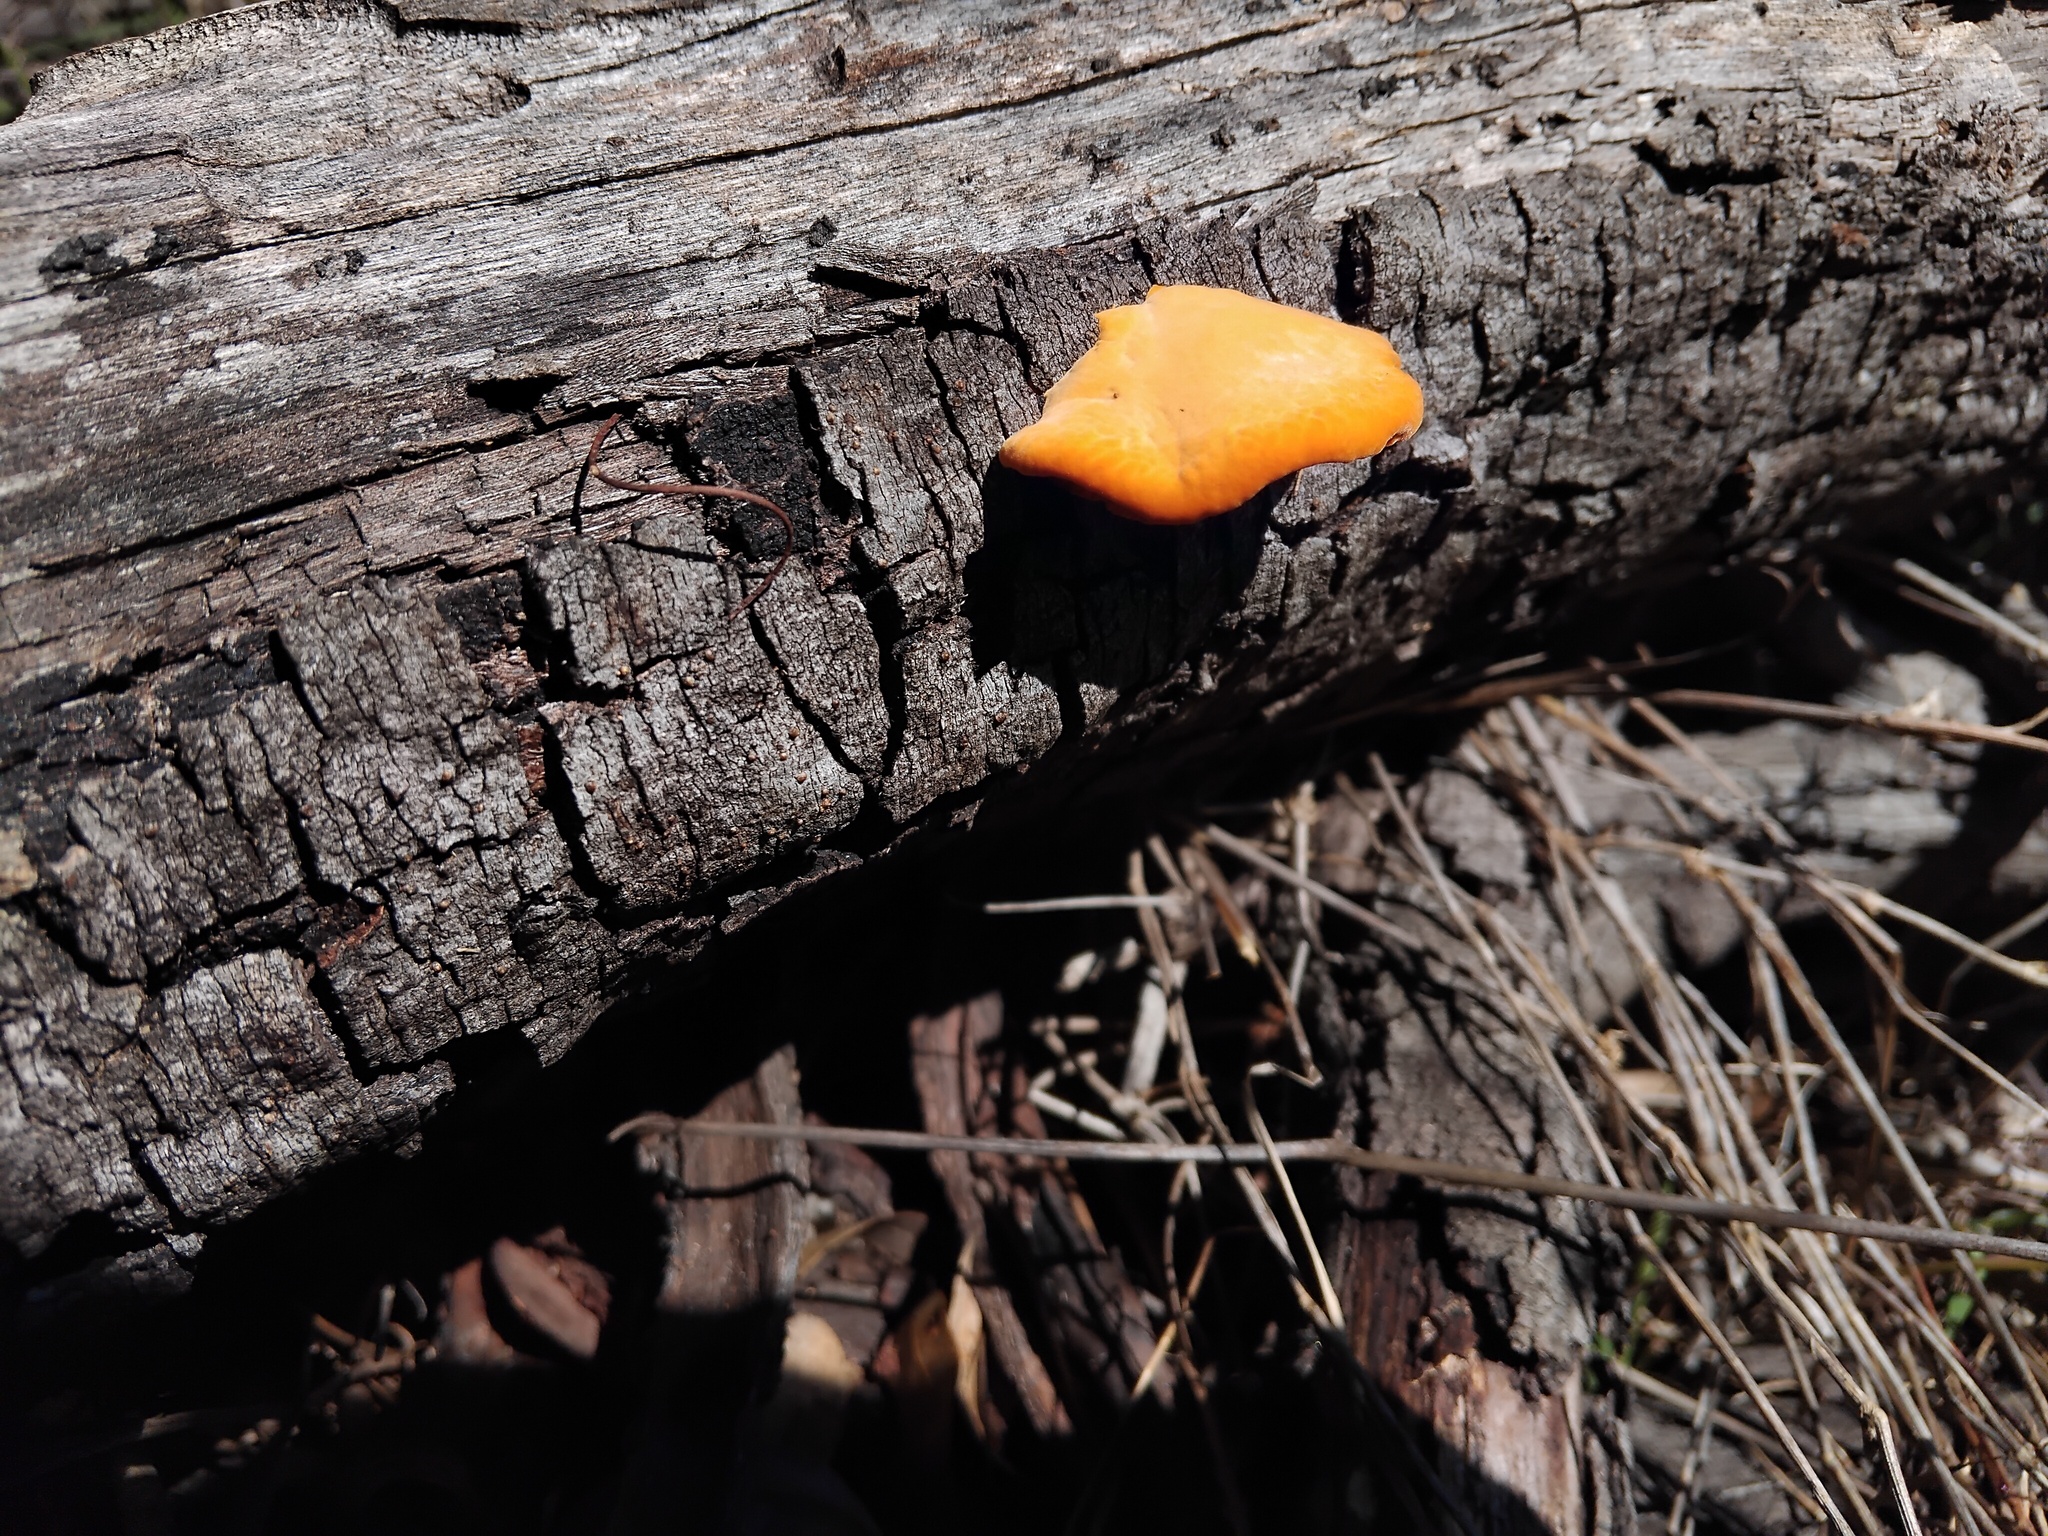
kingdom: Fungi
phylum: Basidiomycota
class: Agaricomycetes
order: Polyporales
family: Polyporaceae
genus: Trametes
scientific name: Trametes coccinea
